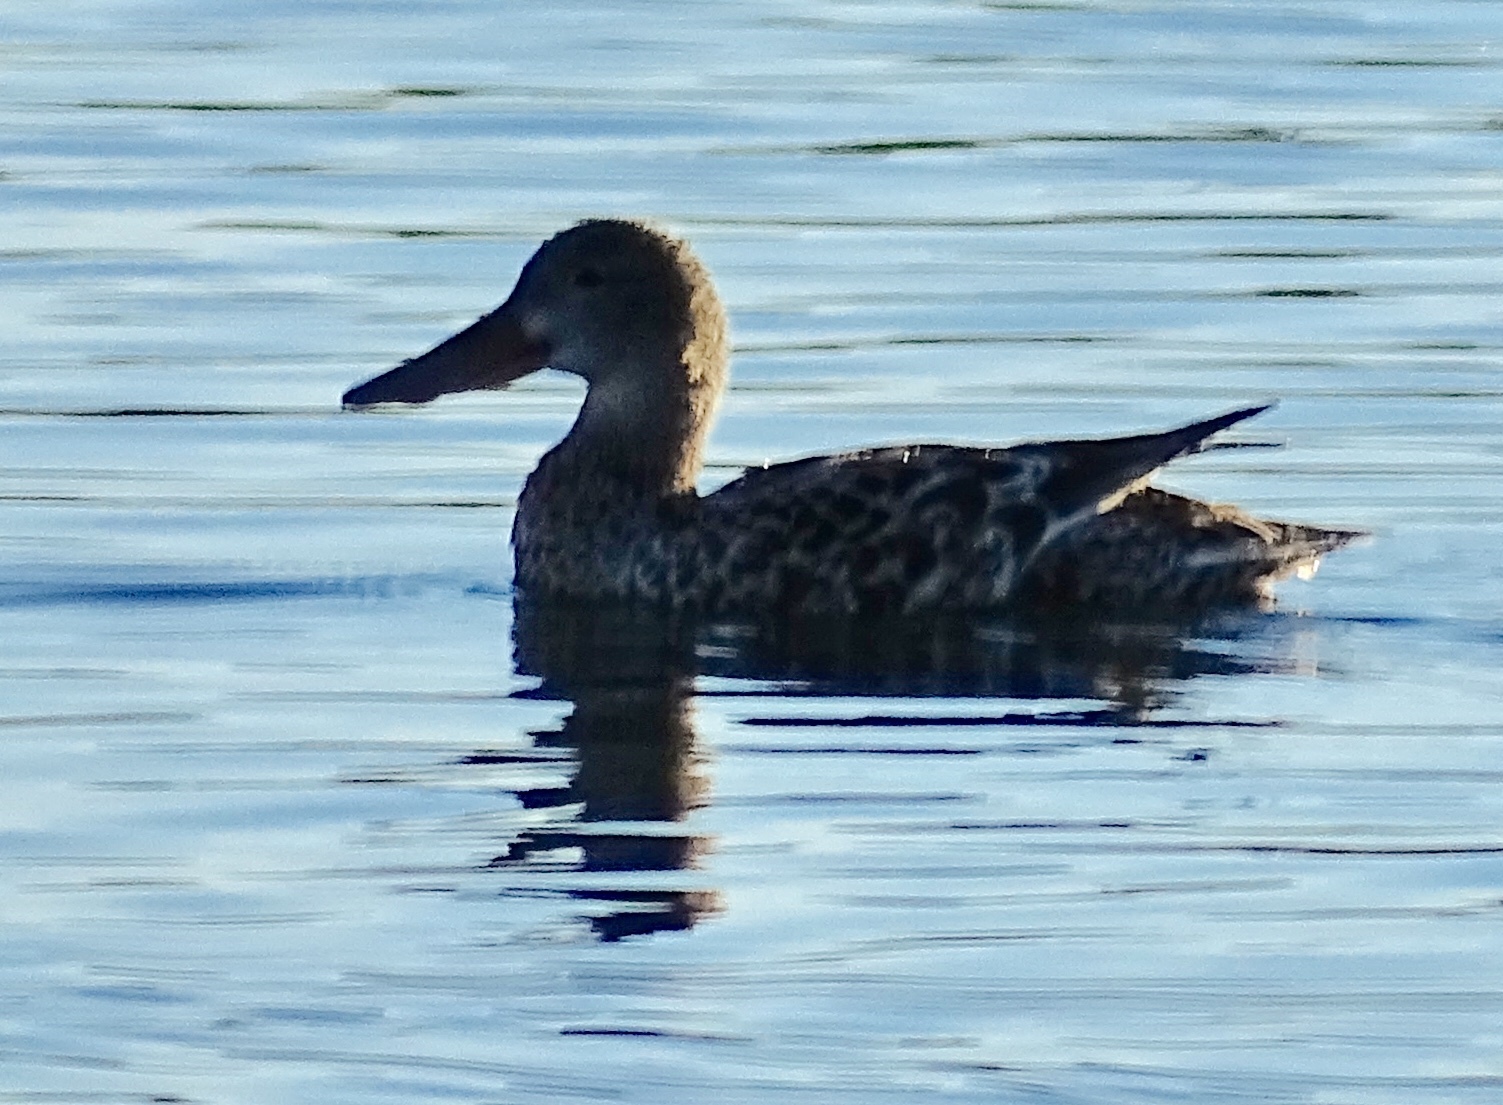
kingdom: Animalia
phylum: Chordata
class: Aves
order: Anseriformes
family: Anatidae
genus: Spatula
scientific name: Spatula clypeata
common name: Northern shoveler
